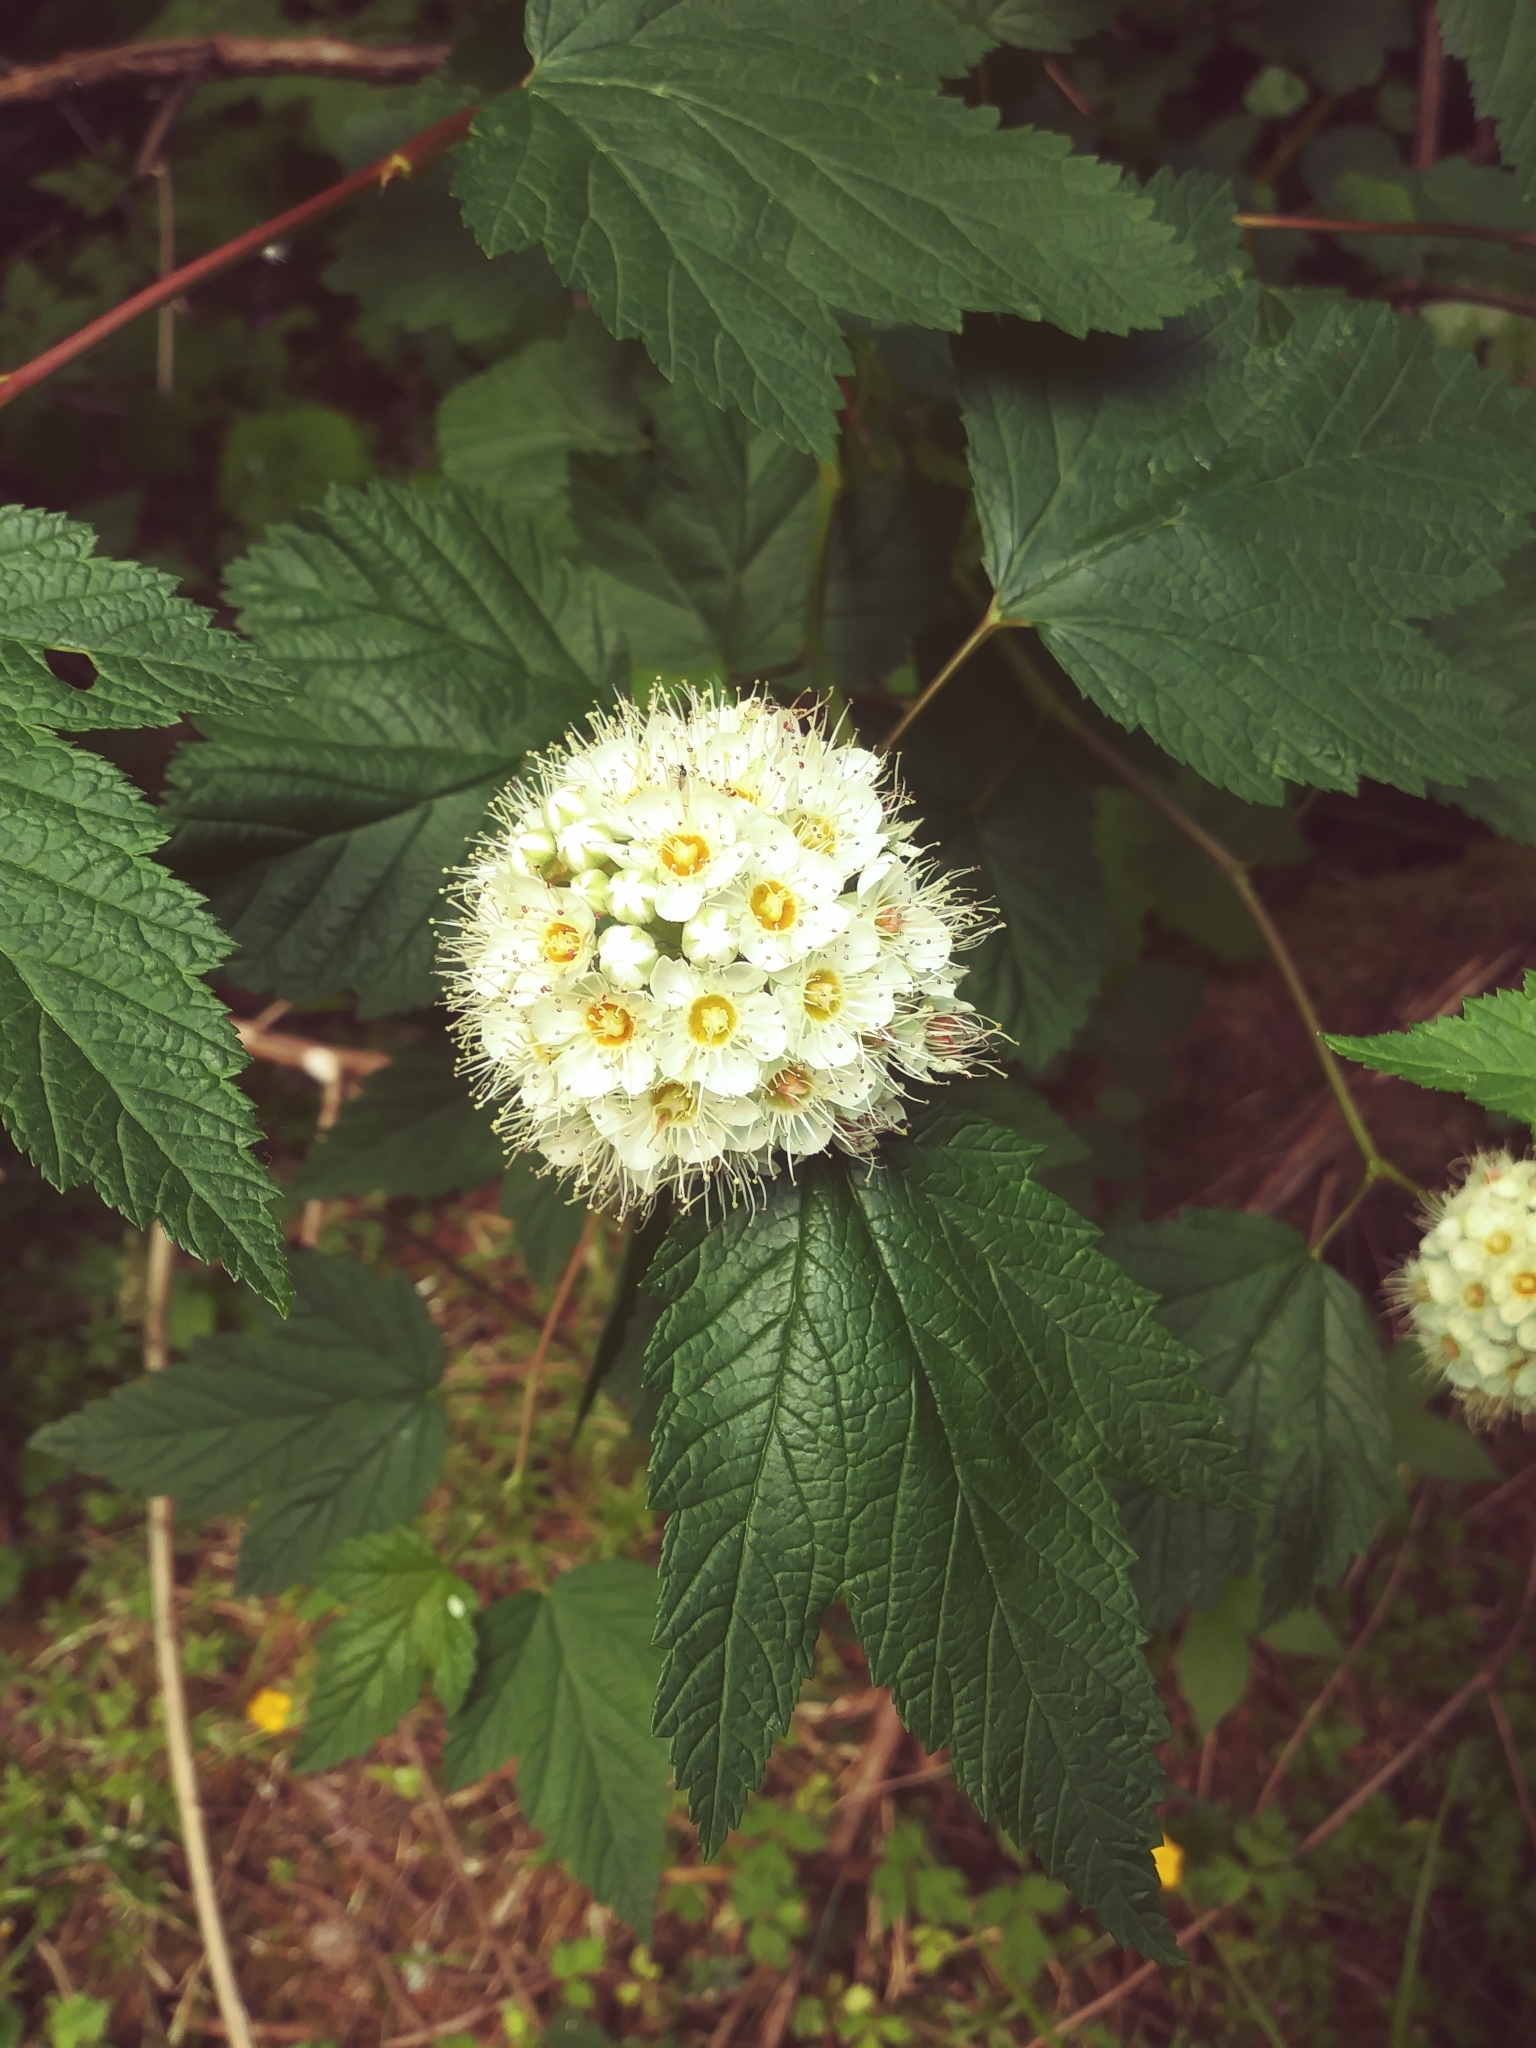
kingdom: Plantae
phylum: Tracheophyta
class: Magnoliopsida
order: Rosales
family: Rosaceae
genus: Physocarpus
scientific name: Physocarpus capitatus
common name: Pacific ninebark
